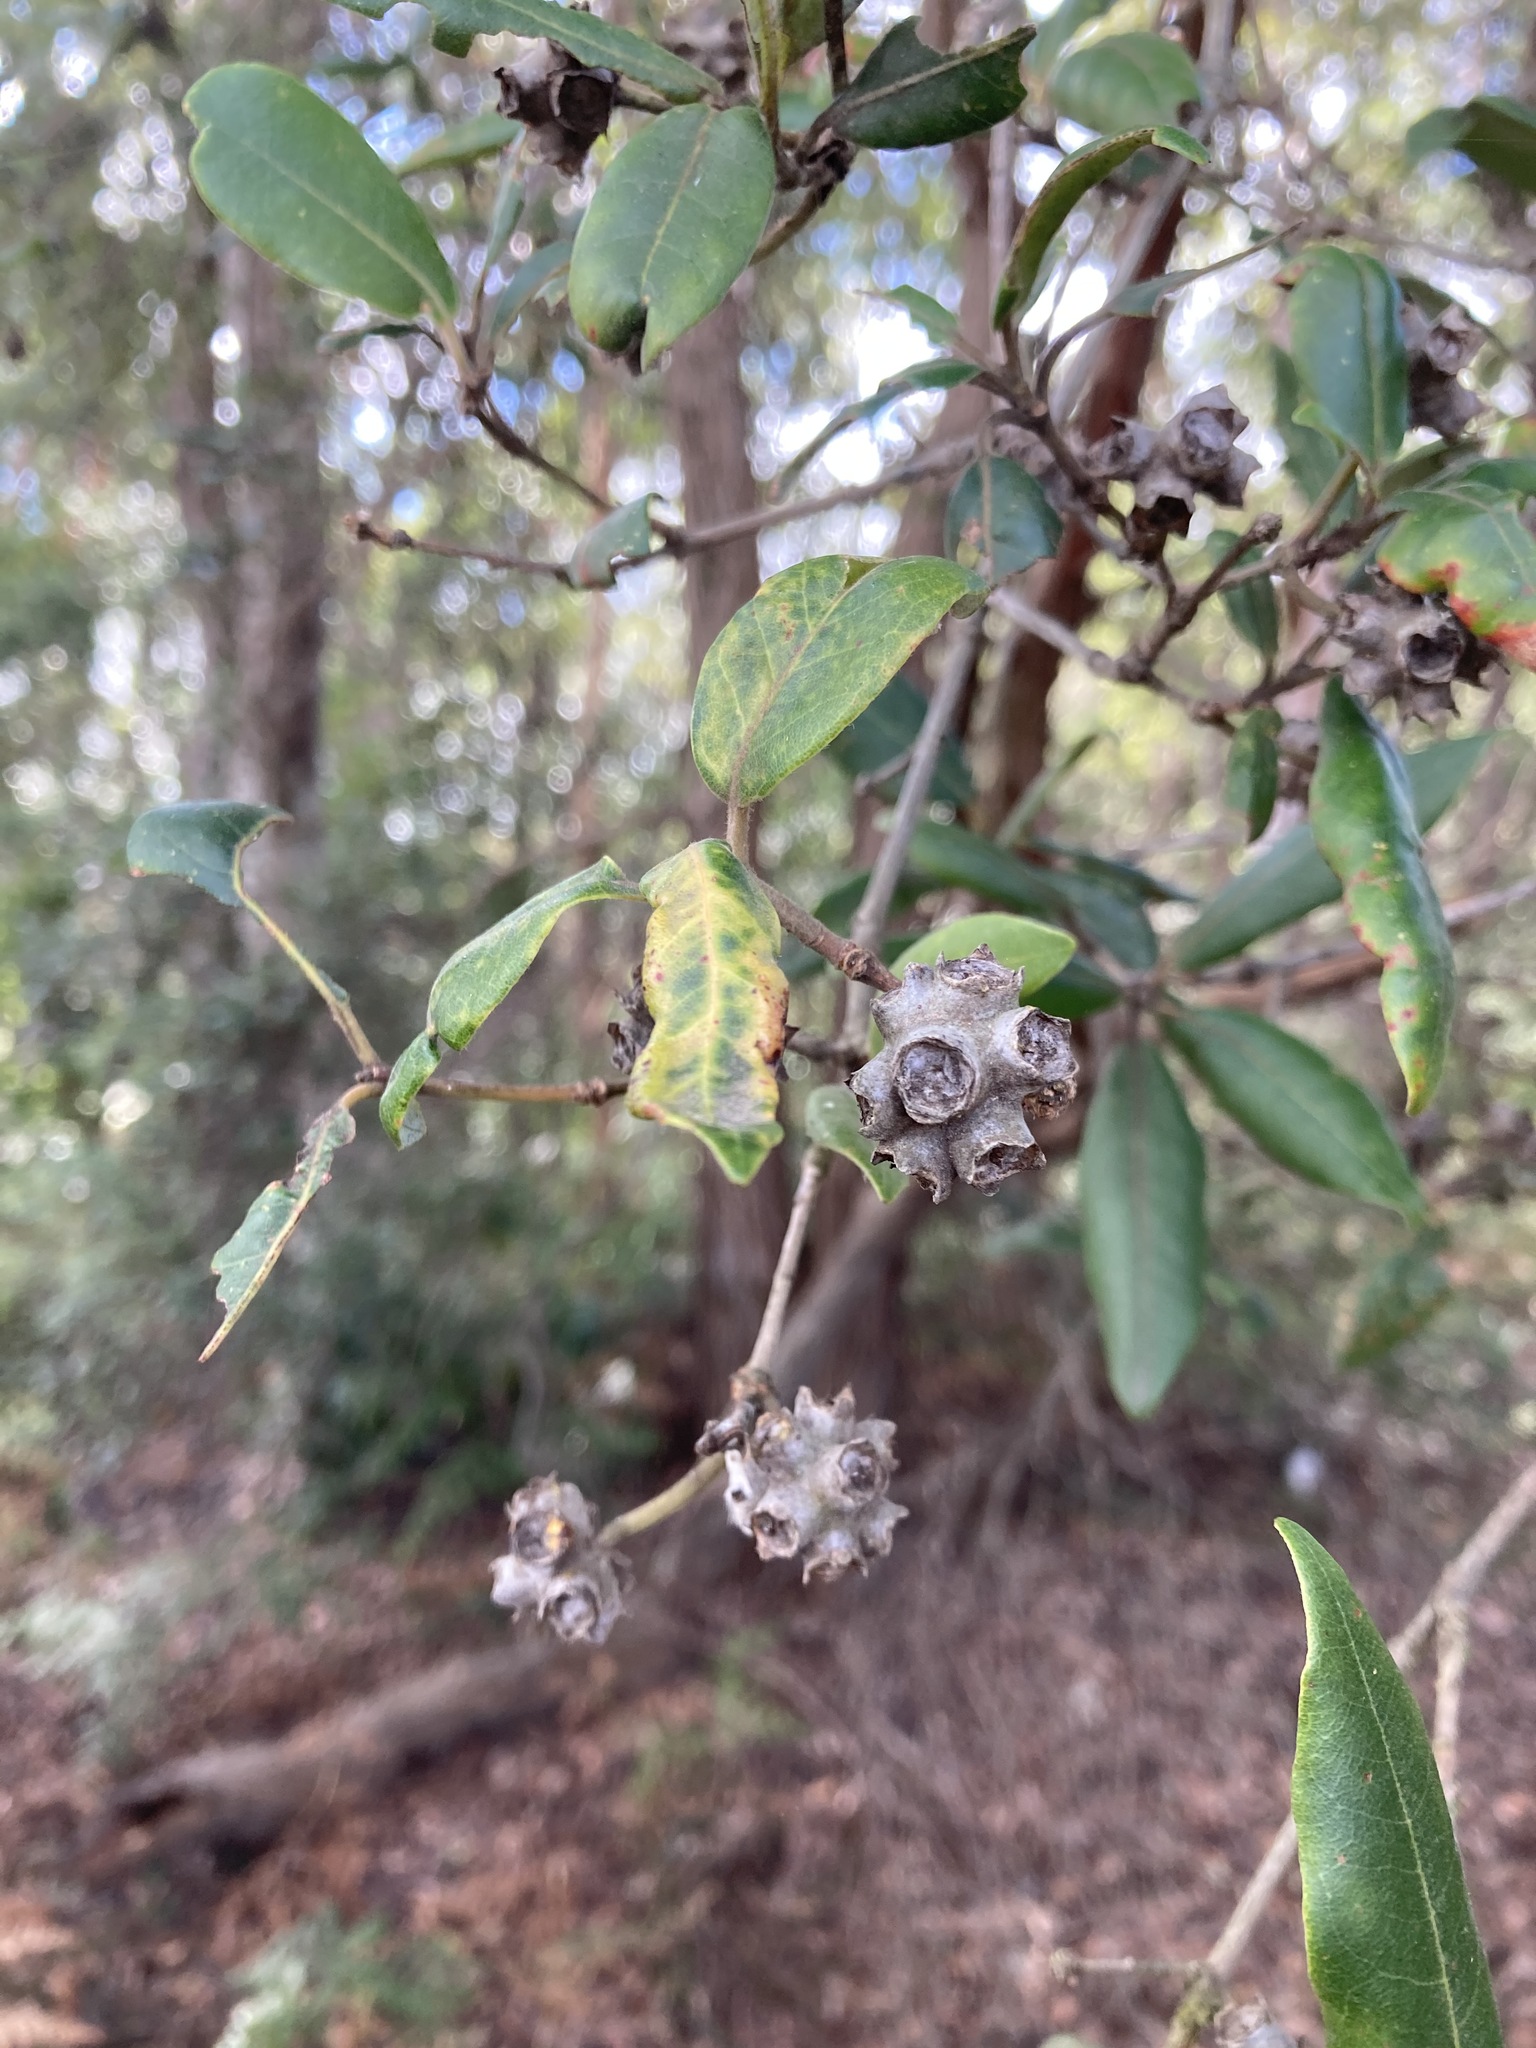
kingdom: Plantae
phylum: Tracheophyta
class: Magnoliopsida
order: Myrtales
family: Myrtaceae
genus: Syncarpia
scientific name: Syncarpia glomulifera
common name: Turpentine tree
